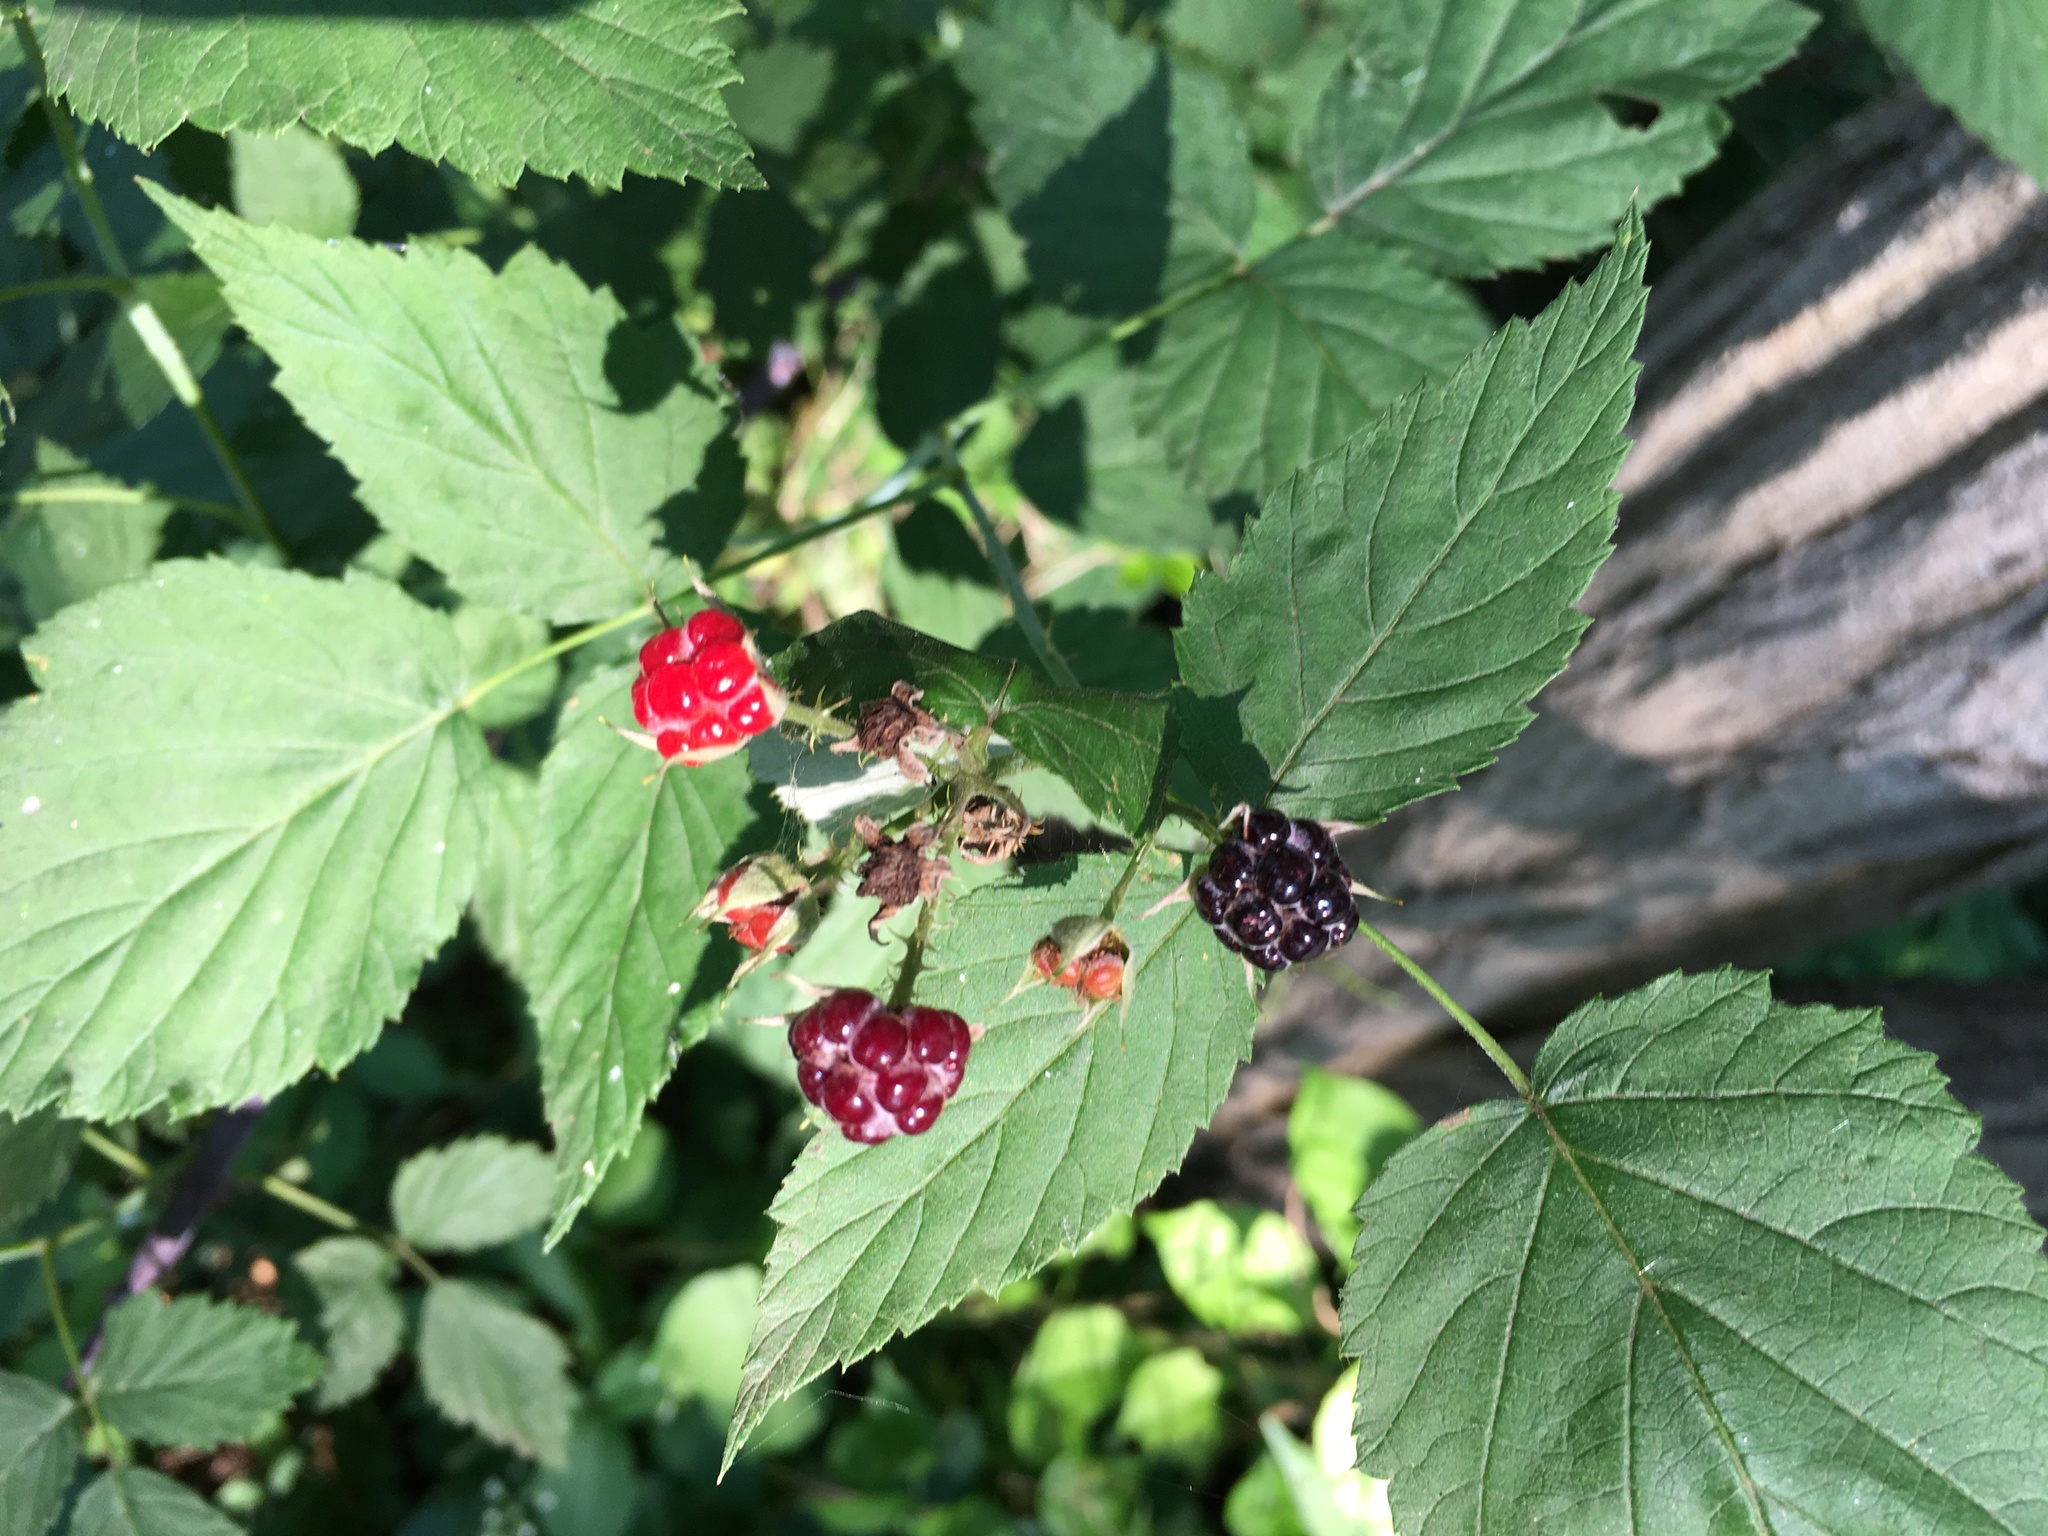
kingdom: Plantae
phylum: Tracheophyta
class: Magnoliopsida
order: Rosales
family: Rosaceae
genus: Rubus
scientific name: Rubus occidentalis
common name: Black raspberry
